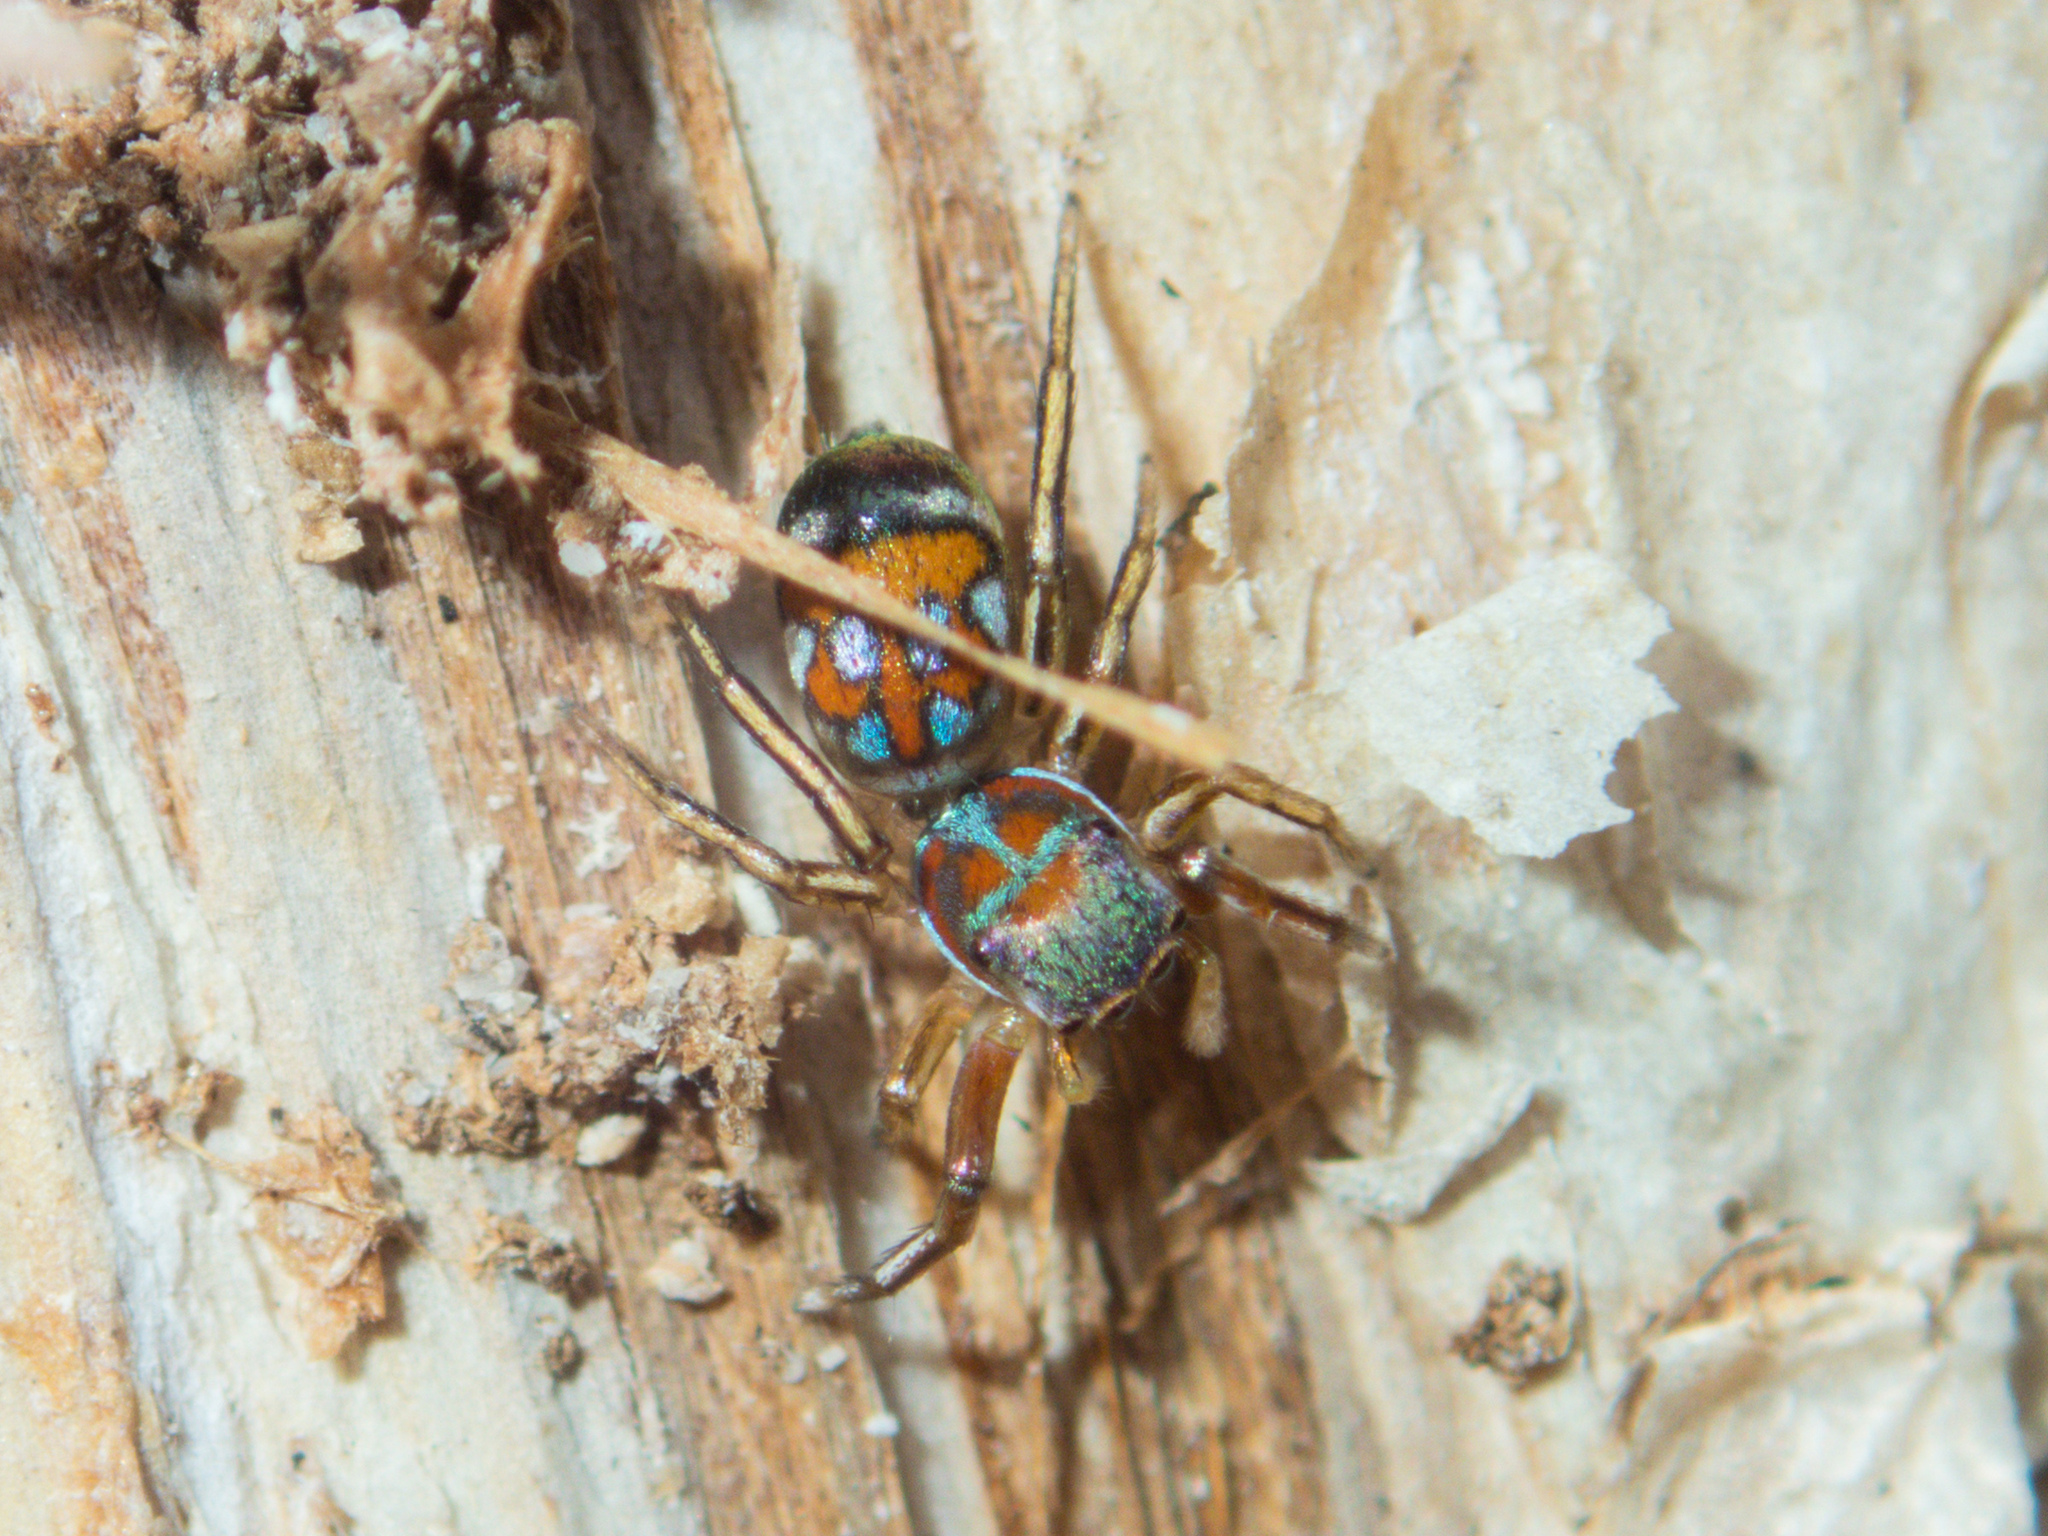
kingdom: Animalia
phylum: Arthropoda
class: Arachnida
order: Araneae
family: Salticidae
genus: Siler
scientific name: Siler semiglaucus
